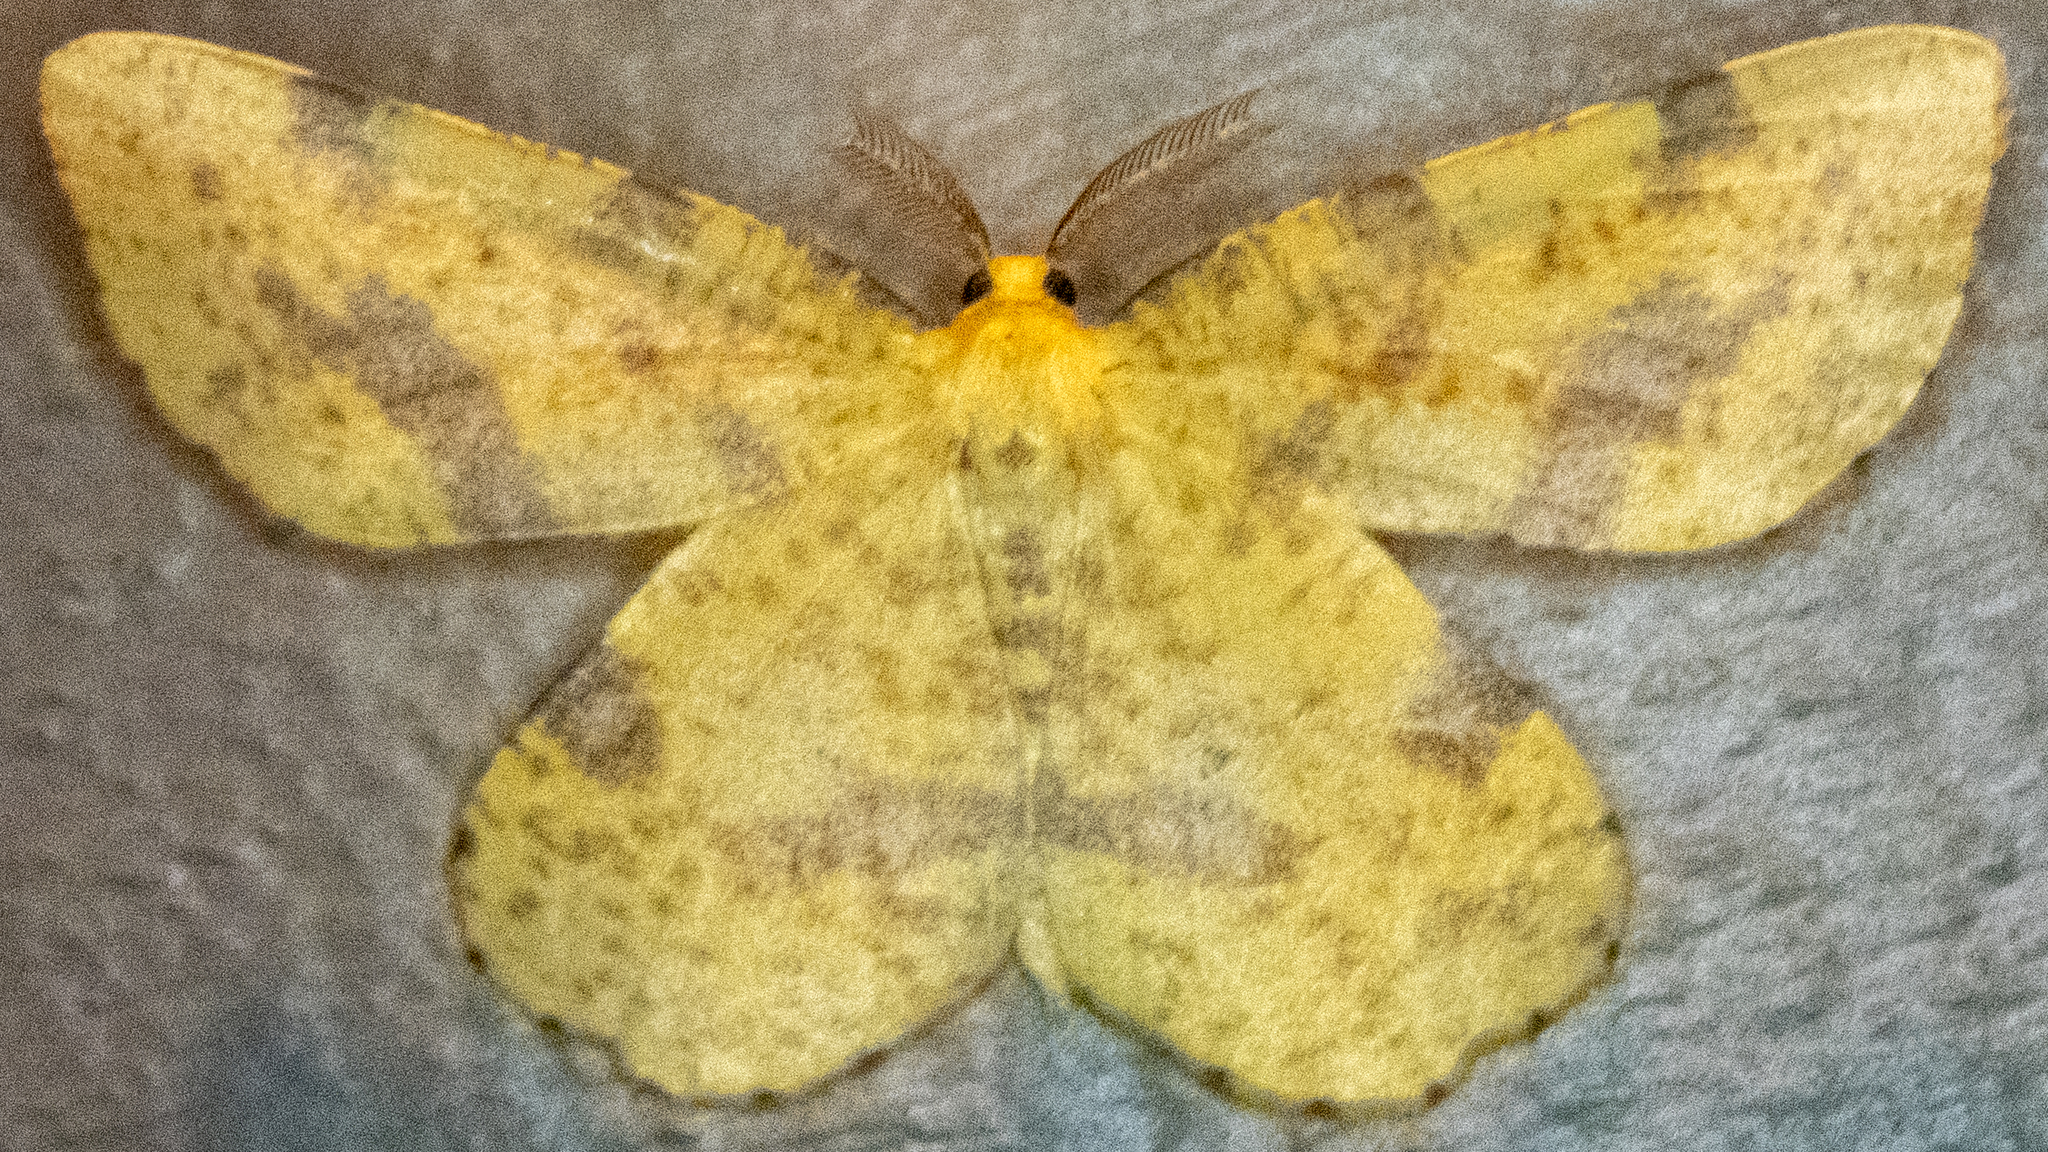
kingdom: Animalia
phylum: Arthropoda
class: Insecta
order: Lepidoptera
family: Geometridae
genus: Xanthotype
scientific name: Xanthotype
